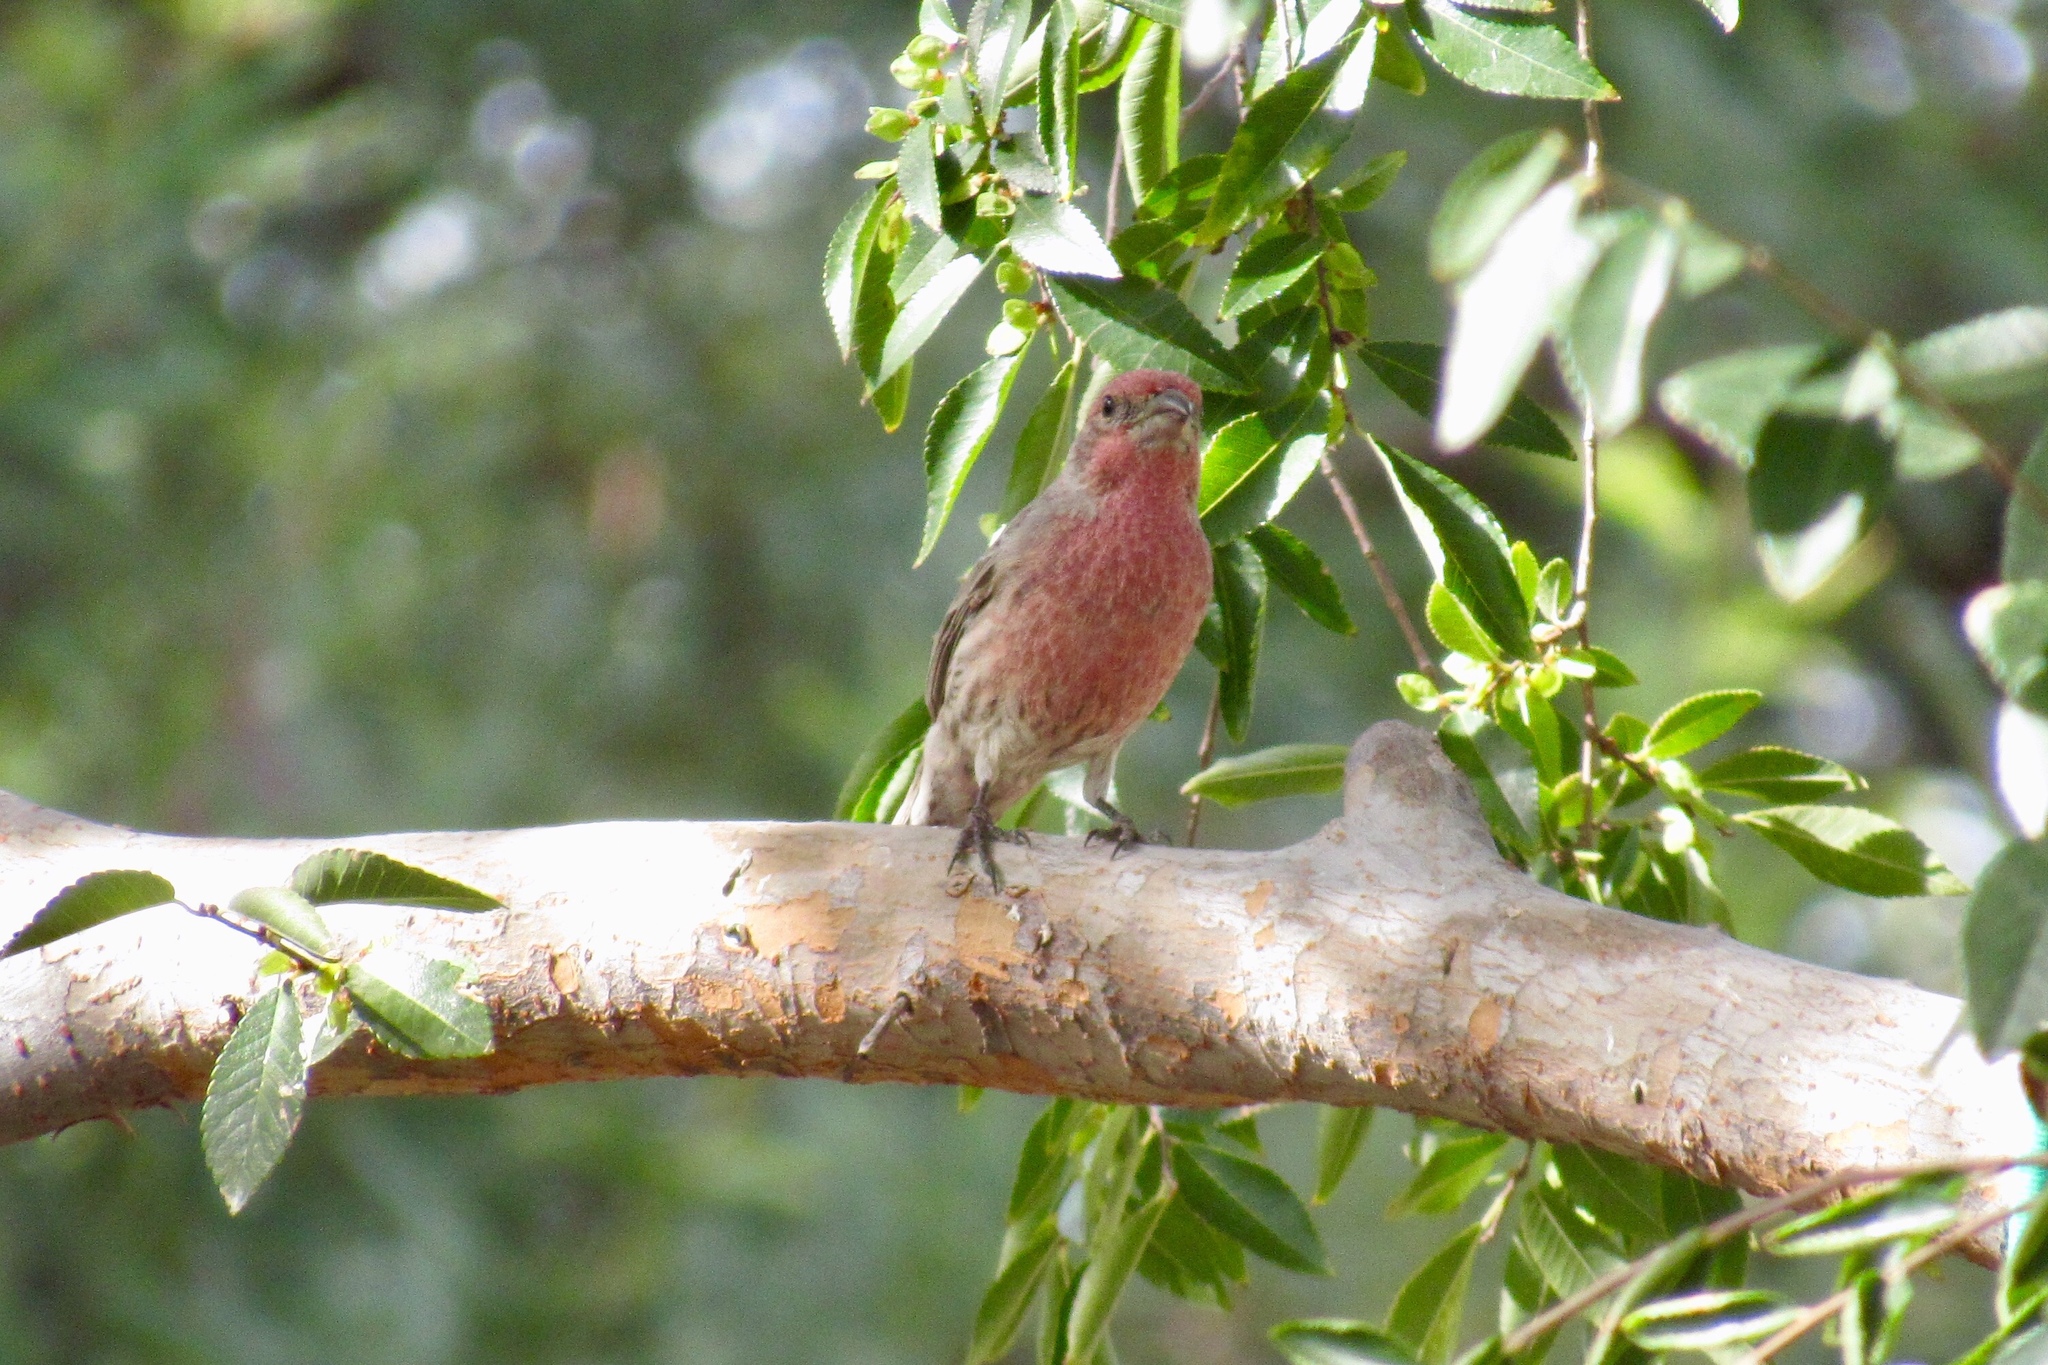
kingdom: Animalia
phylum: Chordata
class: Aves
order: Passeriformes
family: Fringillidae
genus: Haemorhous
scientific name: Haemorhous mexicanus
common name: House finch
